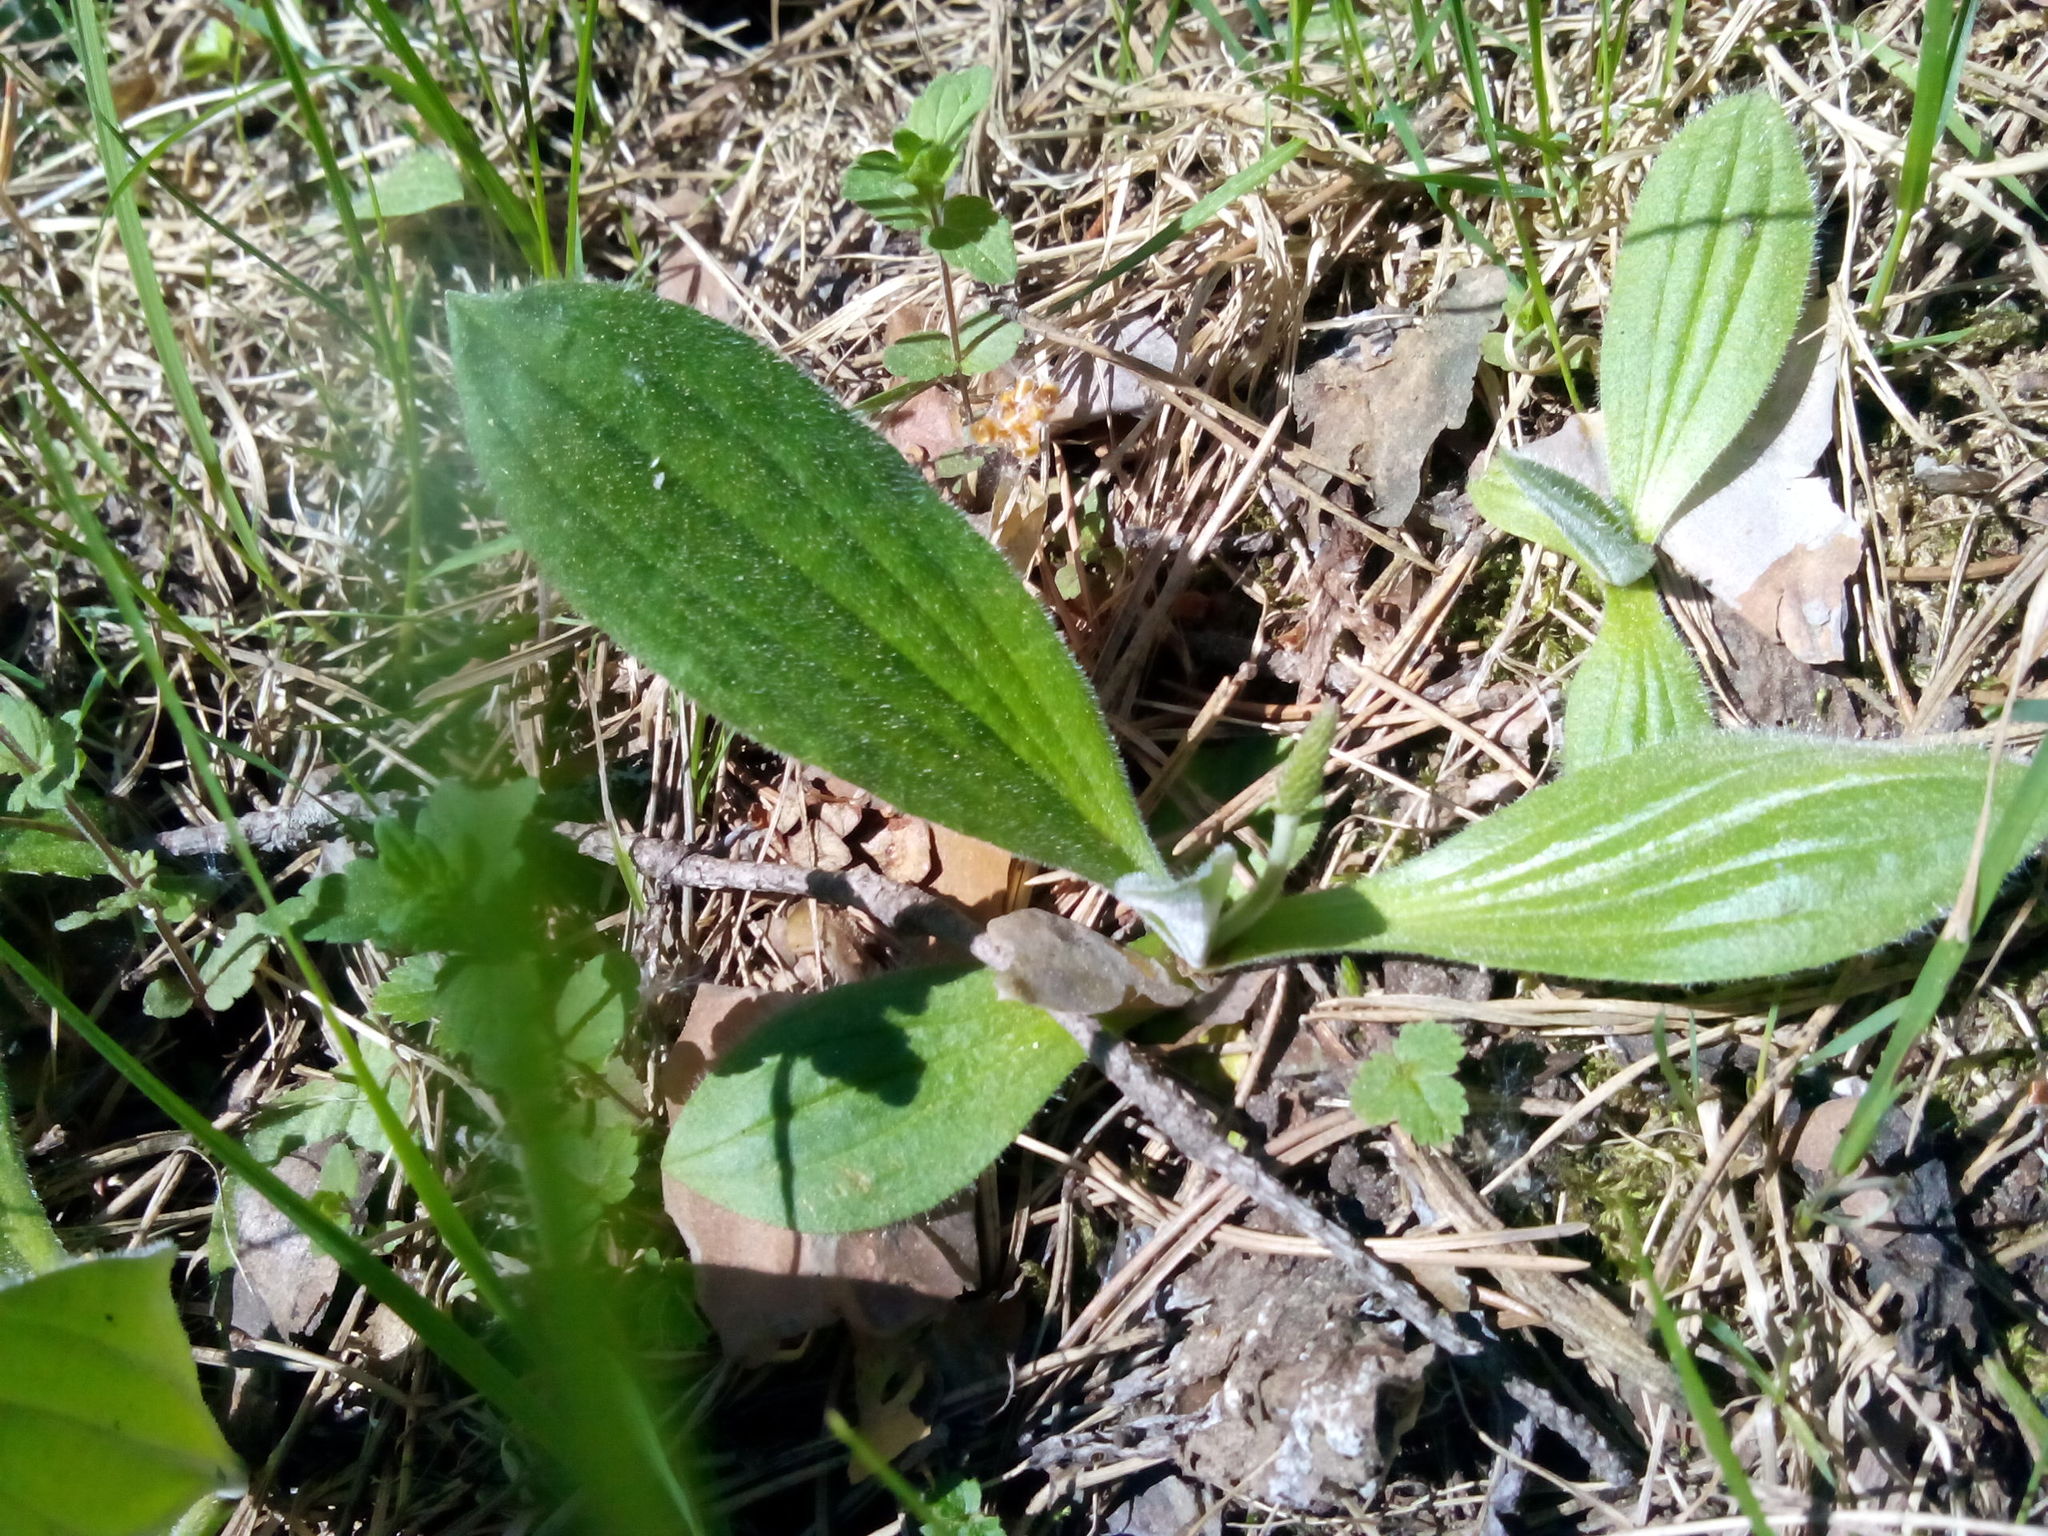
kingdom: Plantae
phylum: Tracheophyta
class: Magnoliopsida
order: Lamiales
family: Plantaginaceae
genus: Plantago
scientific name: Plantago media
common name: Hoary plantain
